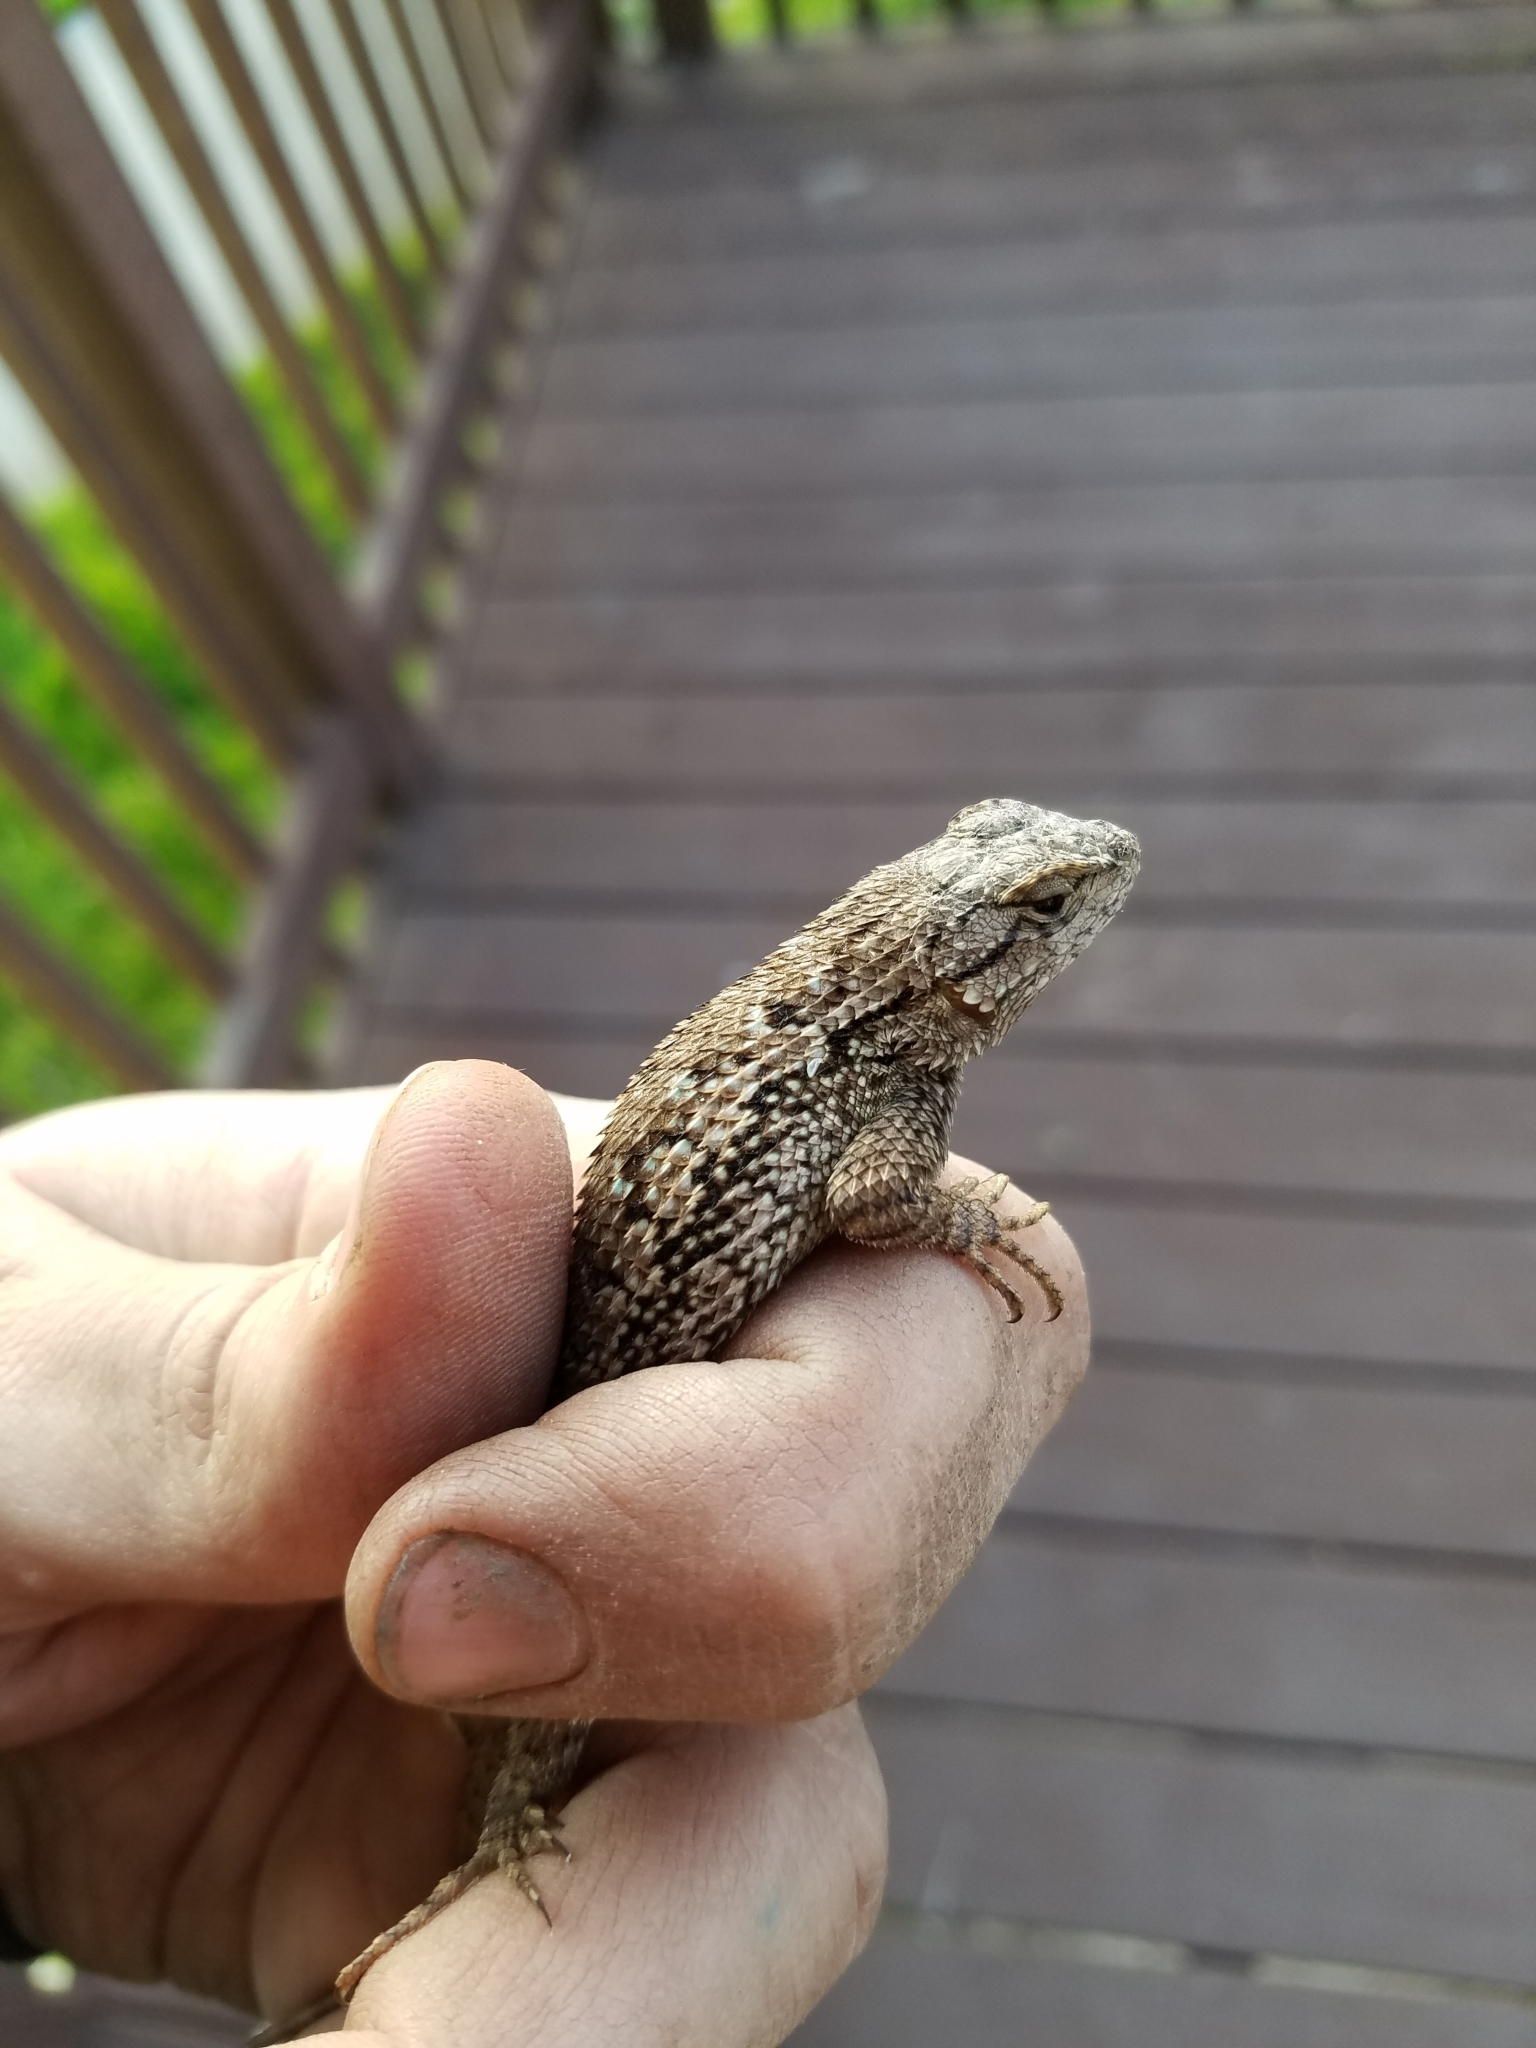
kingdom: Animalia
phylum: Chordata
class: Squamata
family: Phrynosomatidae
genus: Sceloporus
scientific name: Sceloporus occidentalis
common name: Western fence lizard
